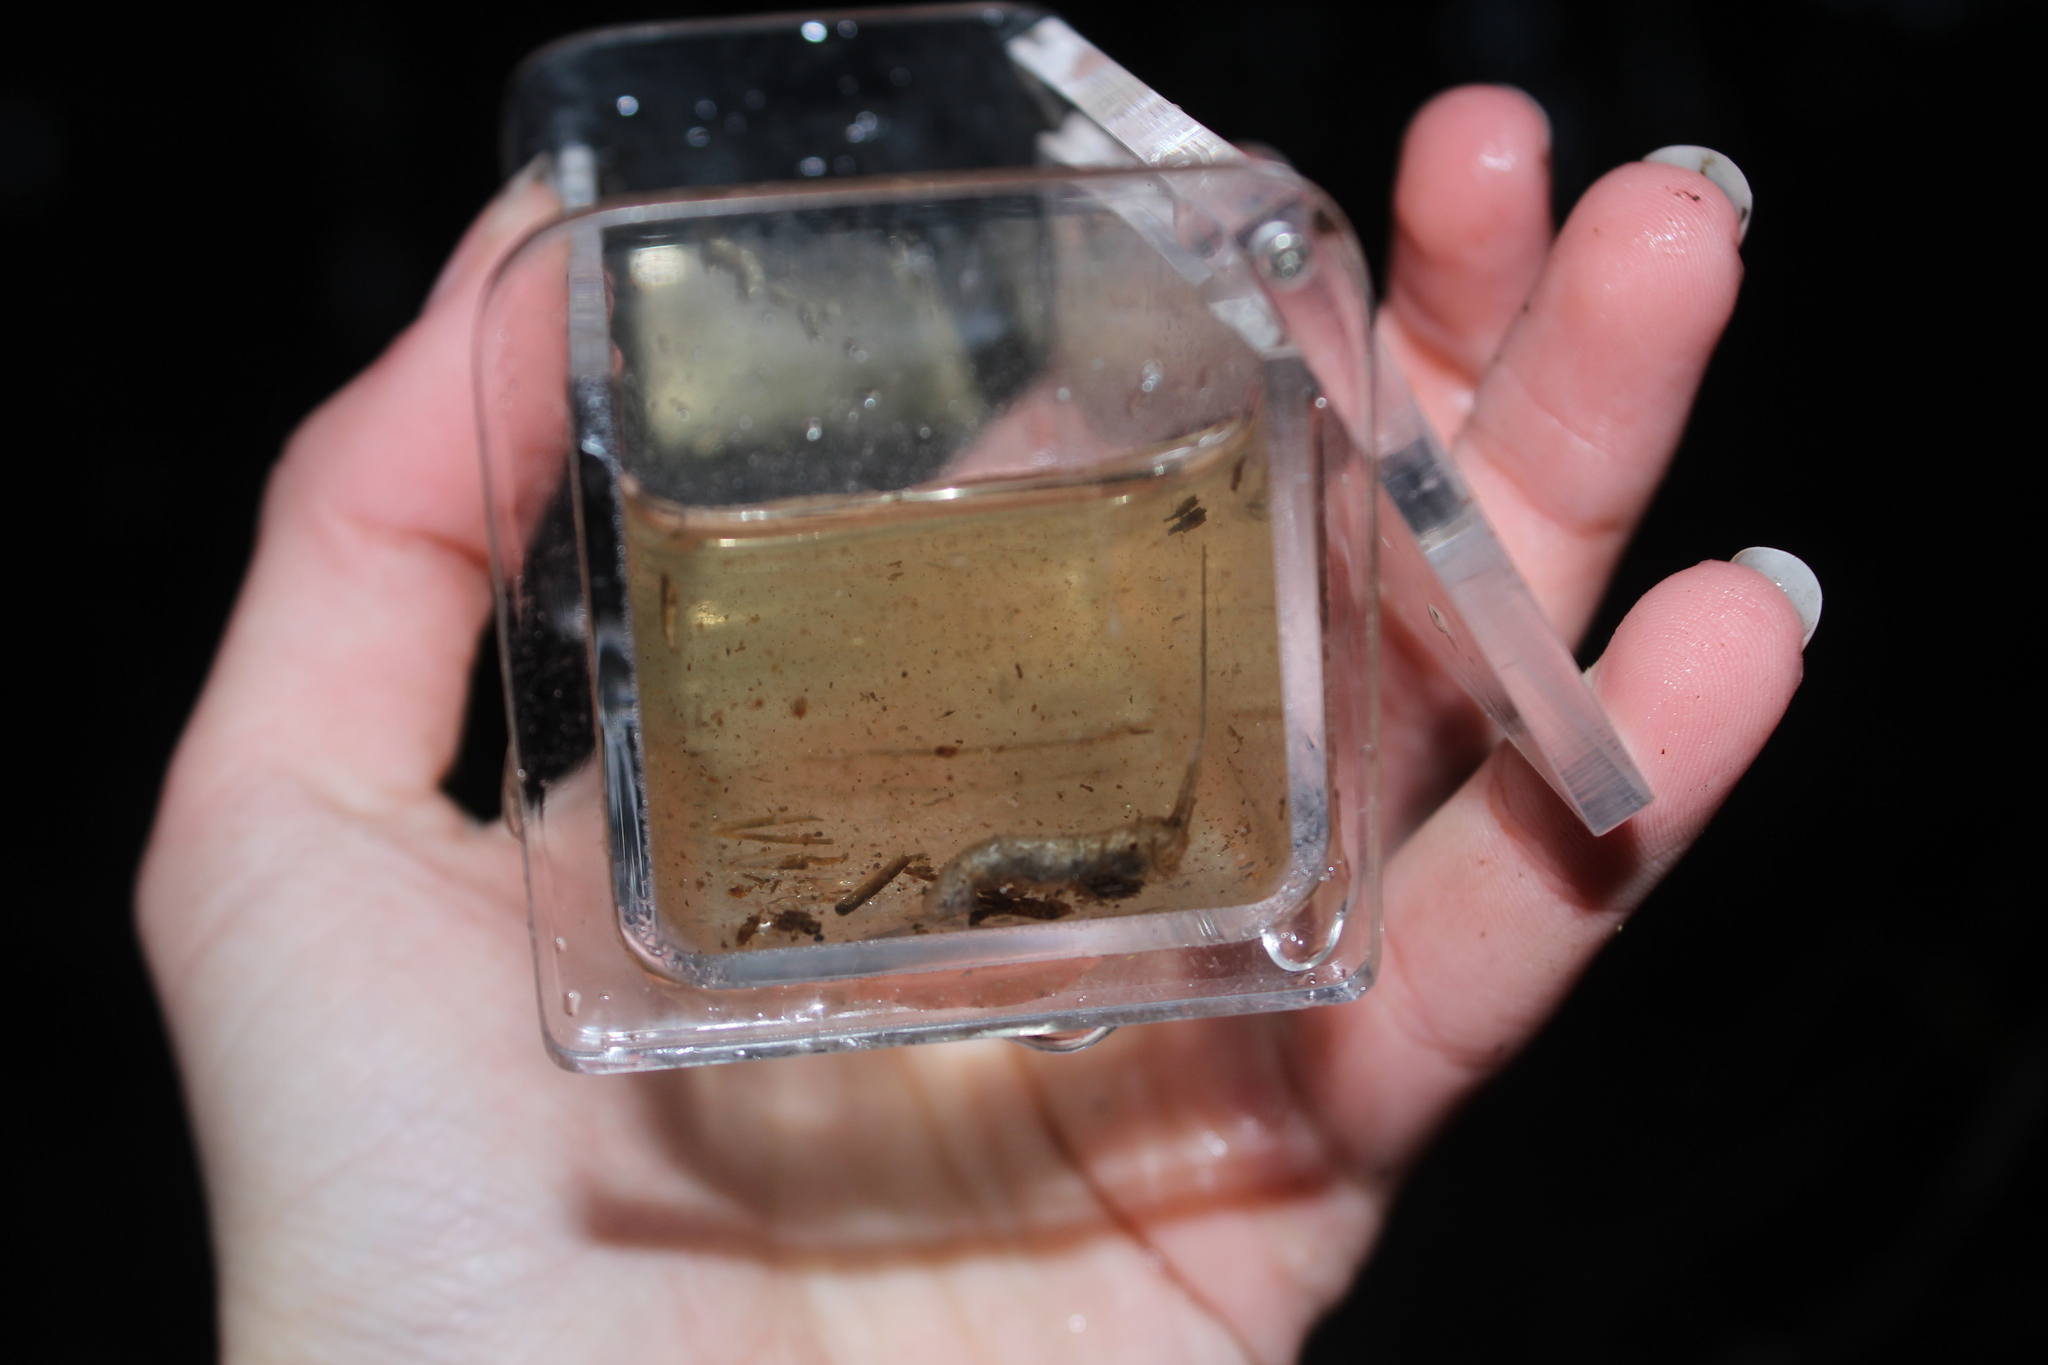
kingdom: Animalia
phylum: Arthropoda
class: Insecta
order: Diptera
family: Syrphidae
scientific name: Syrphidae
